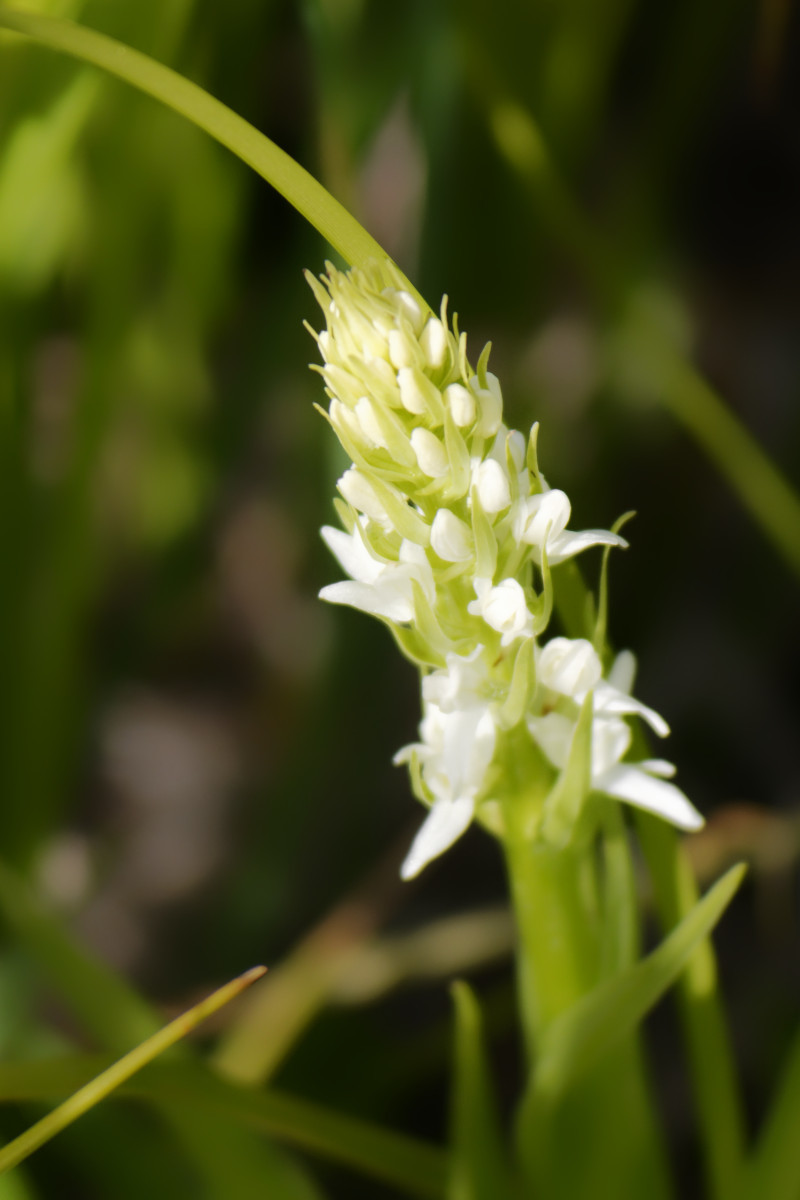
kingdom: Plantae
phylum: Tracheophyta
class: Liliopsida
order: Asparagales
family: Orchidaceae
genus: Platanthera
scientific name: Platanthera dilatata
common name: Bog candles
